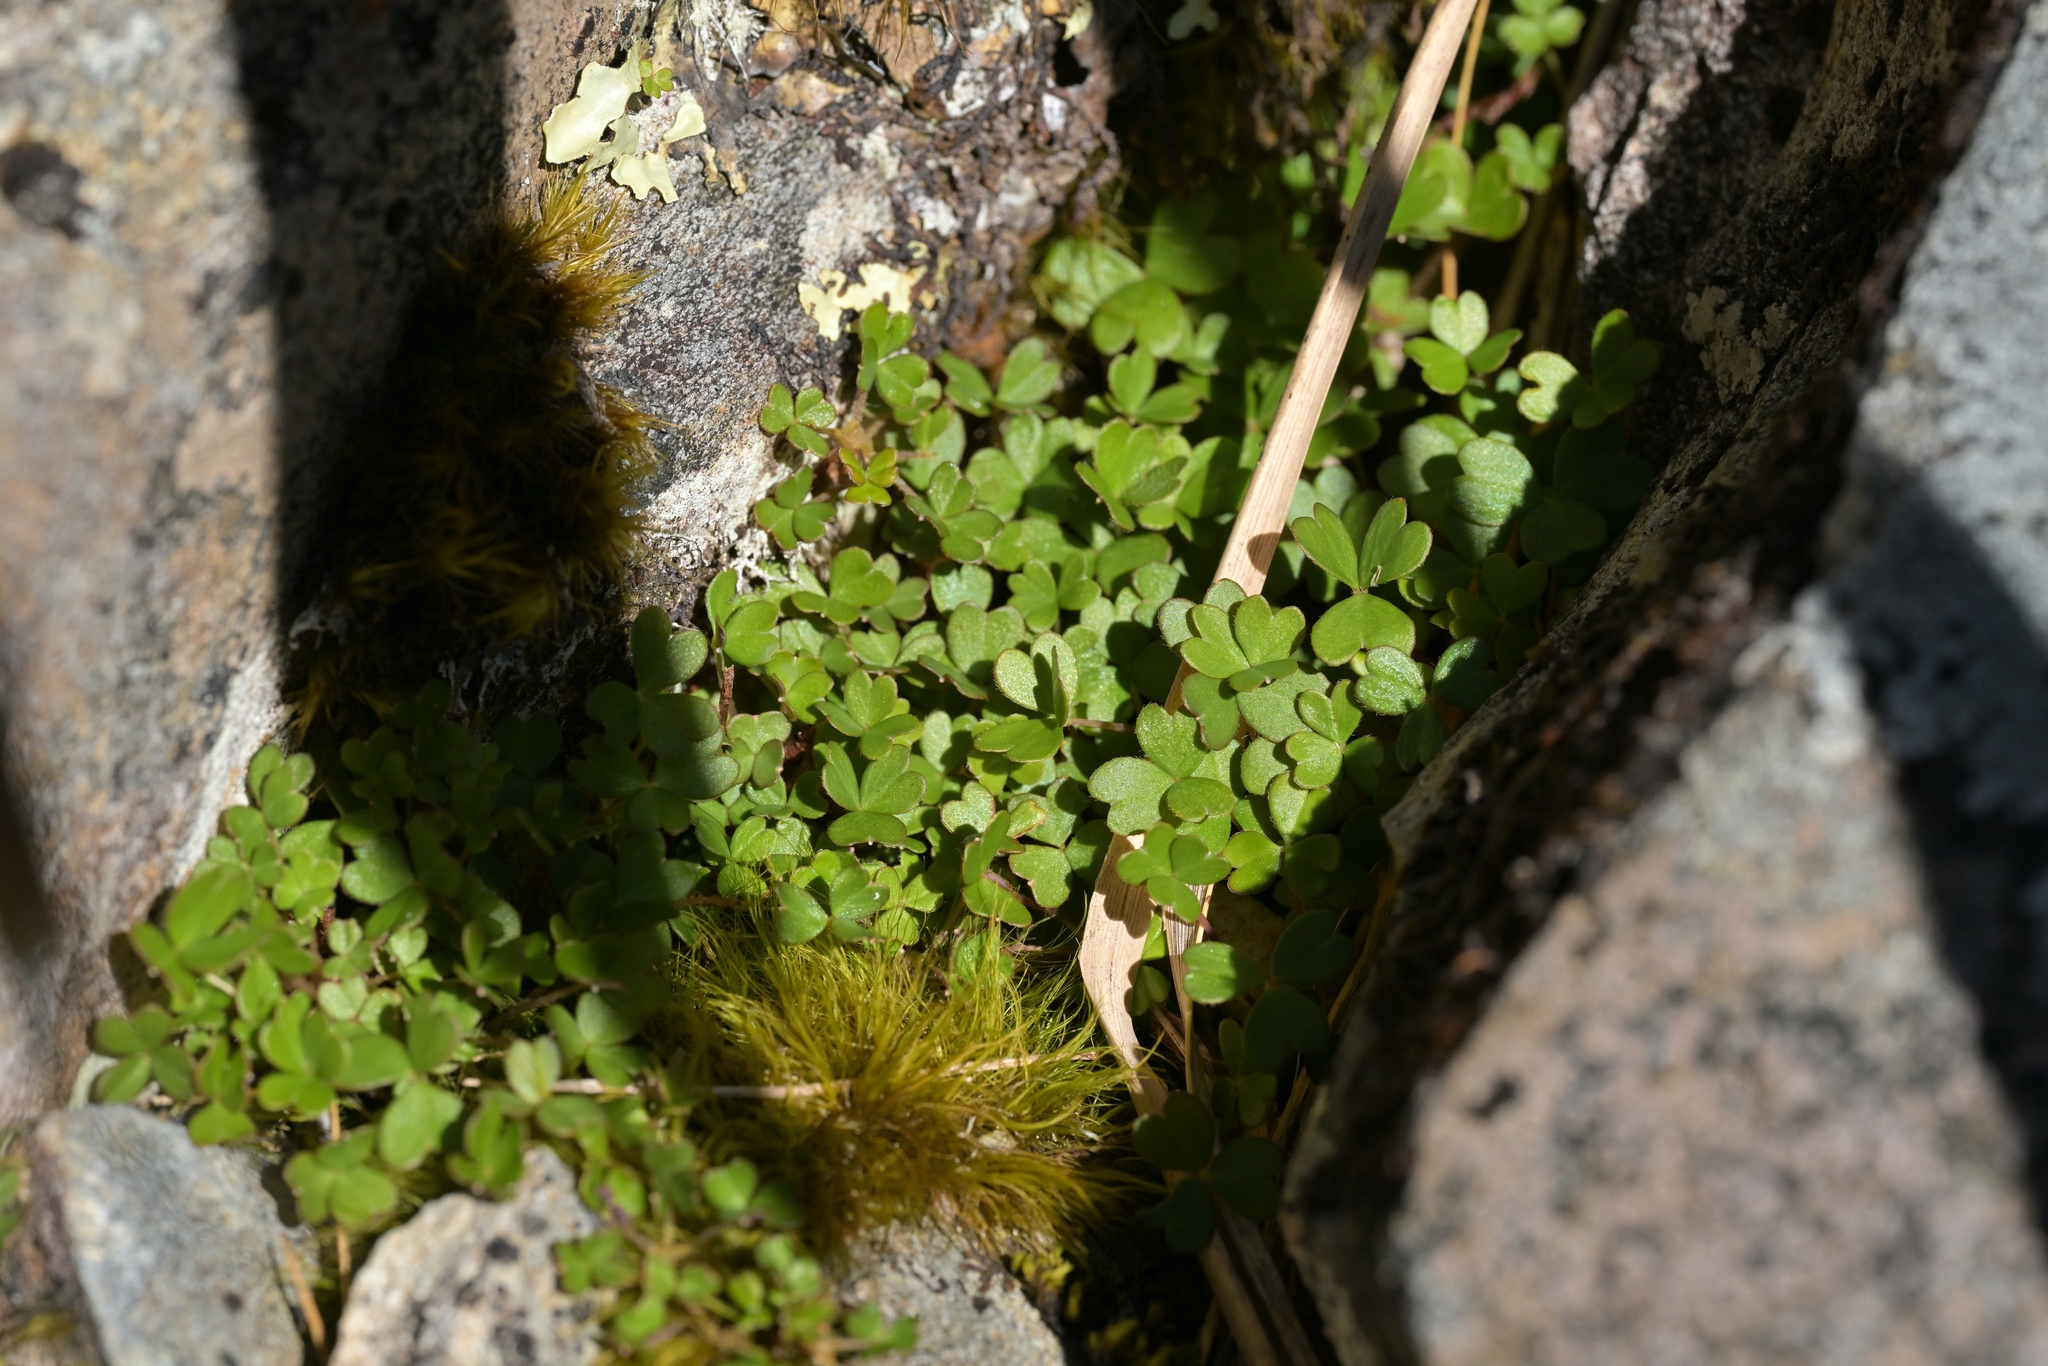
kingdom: Plantae
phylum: Tracheophyta
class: Magnoliopsida
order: Oxalidales
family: Oxalidaceae
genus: Oxalis
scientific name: Oxalis magellanica
